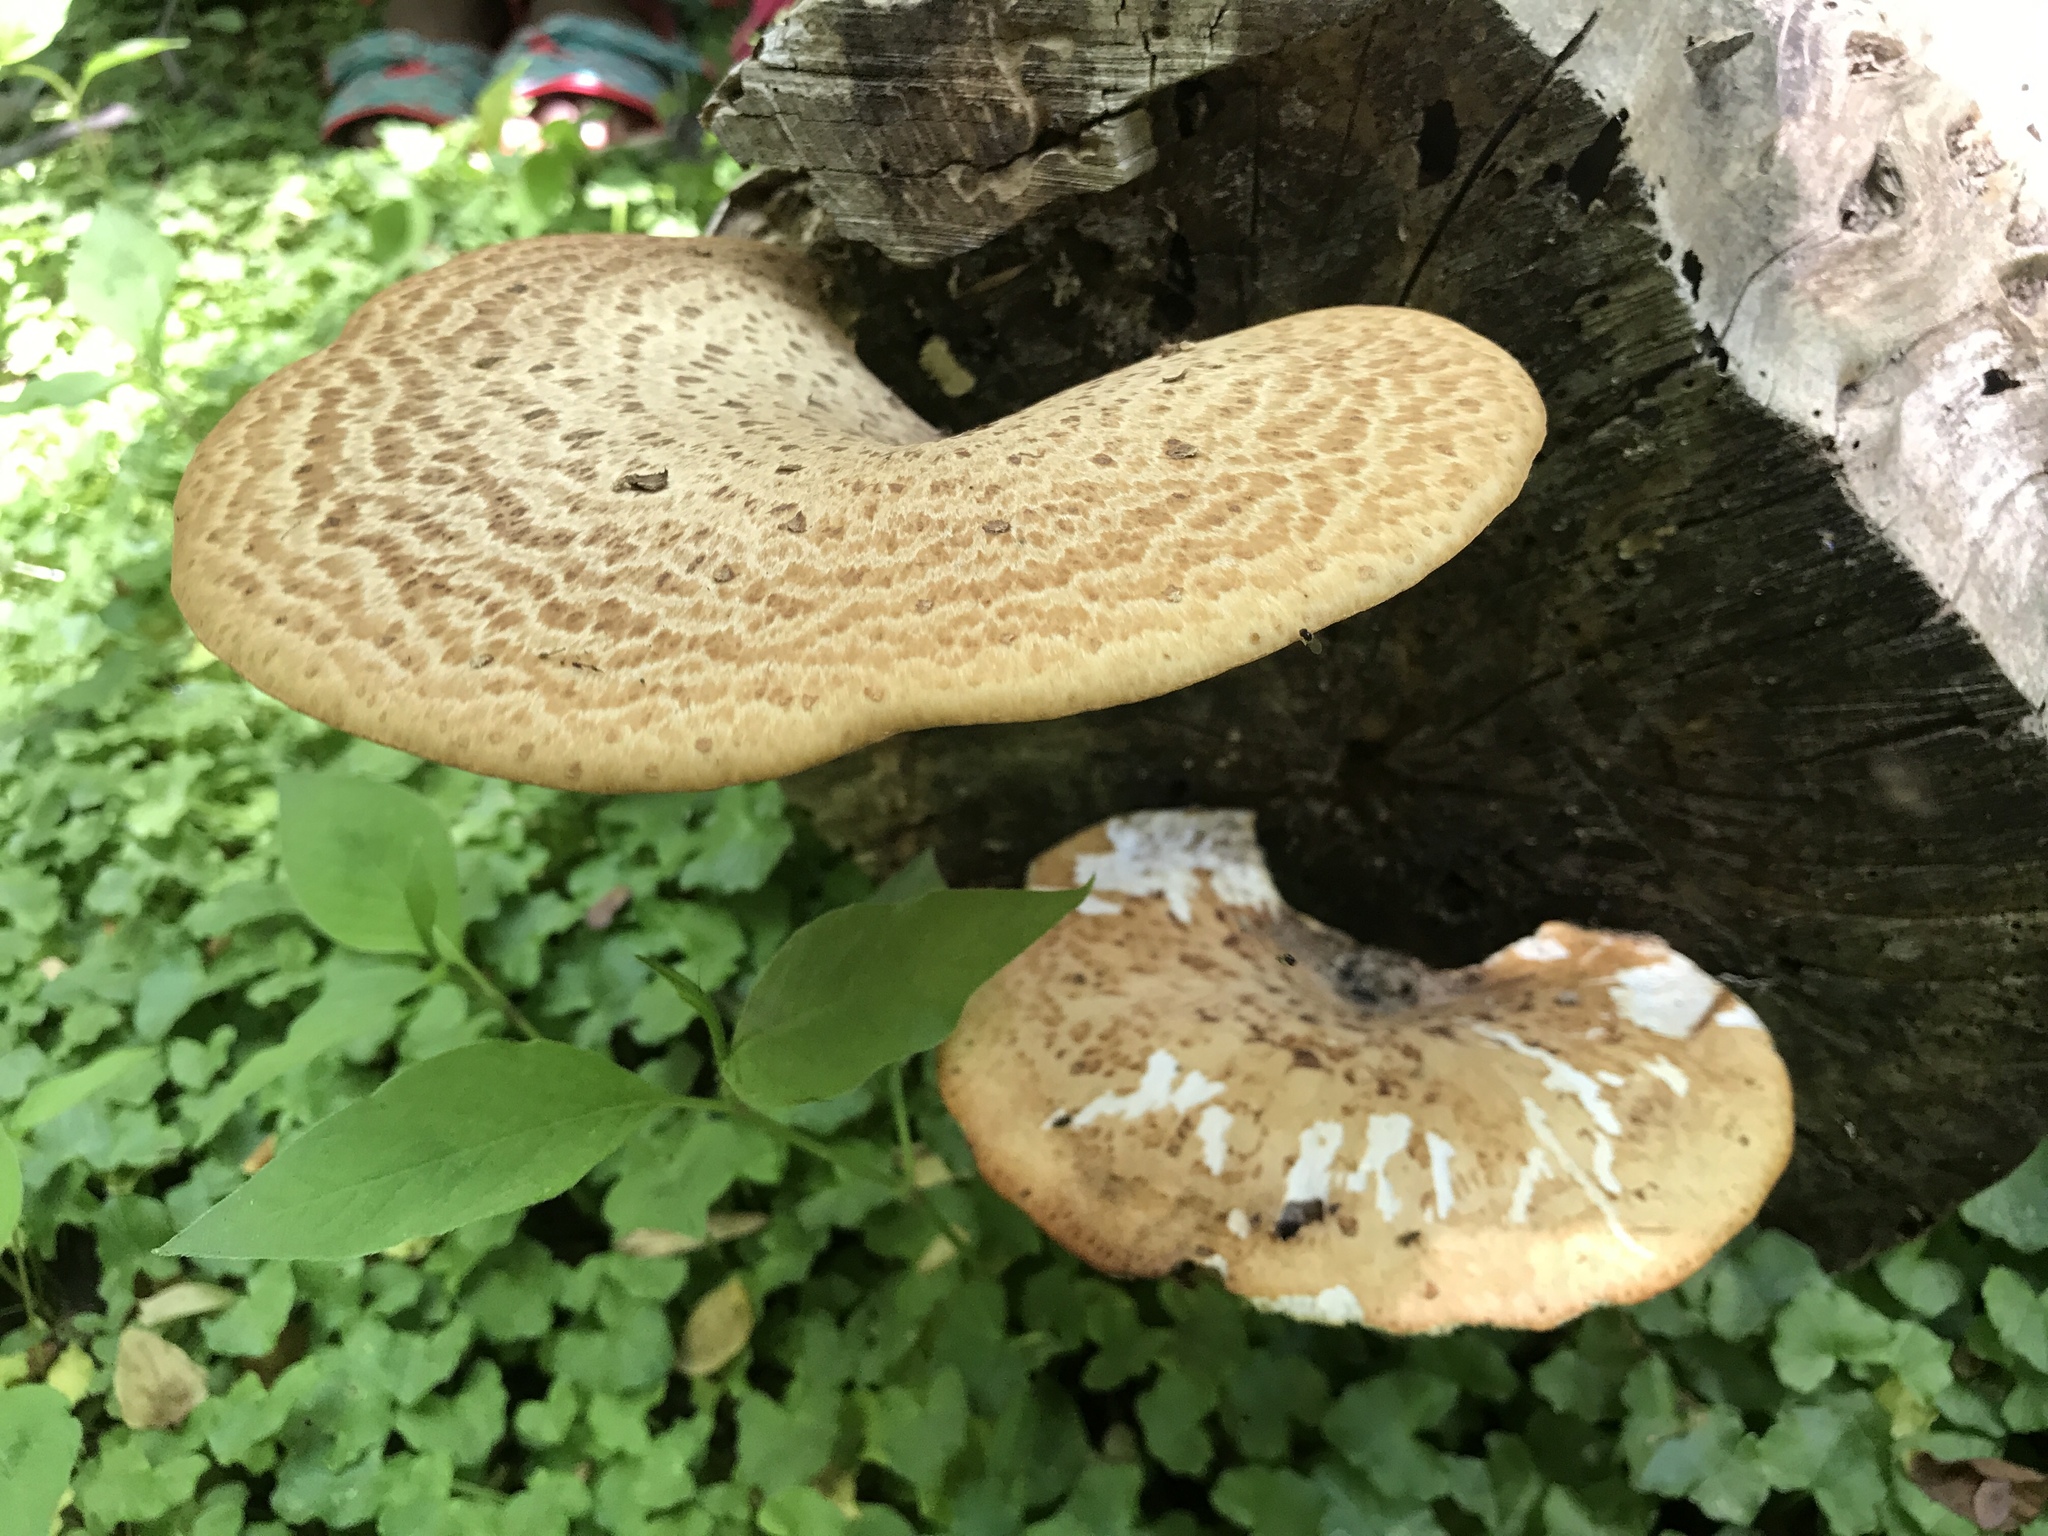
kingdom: Fungi
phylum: Basidiomycota
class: Agaricomycetes
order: Polyporales
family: Polyporaceae
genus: Cerioporus
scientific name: Cerioporus squamosus
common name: Dryad's saddle
